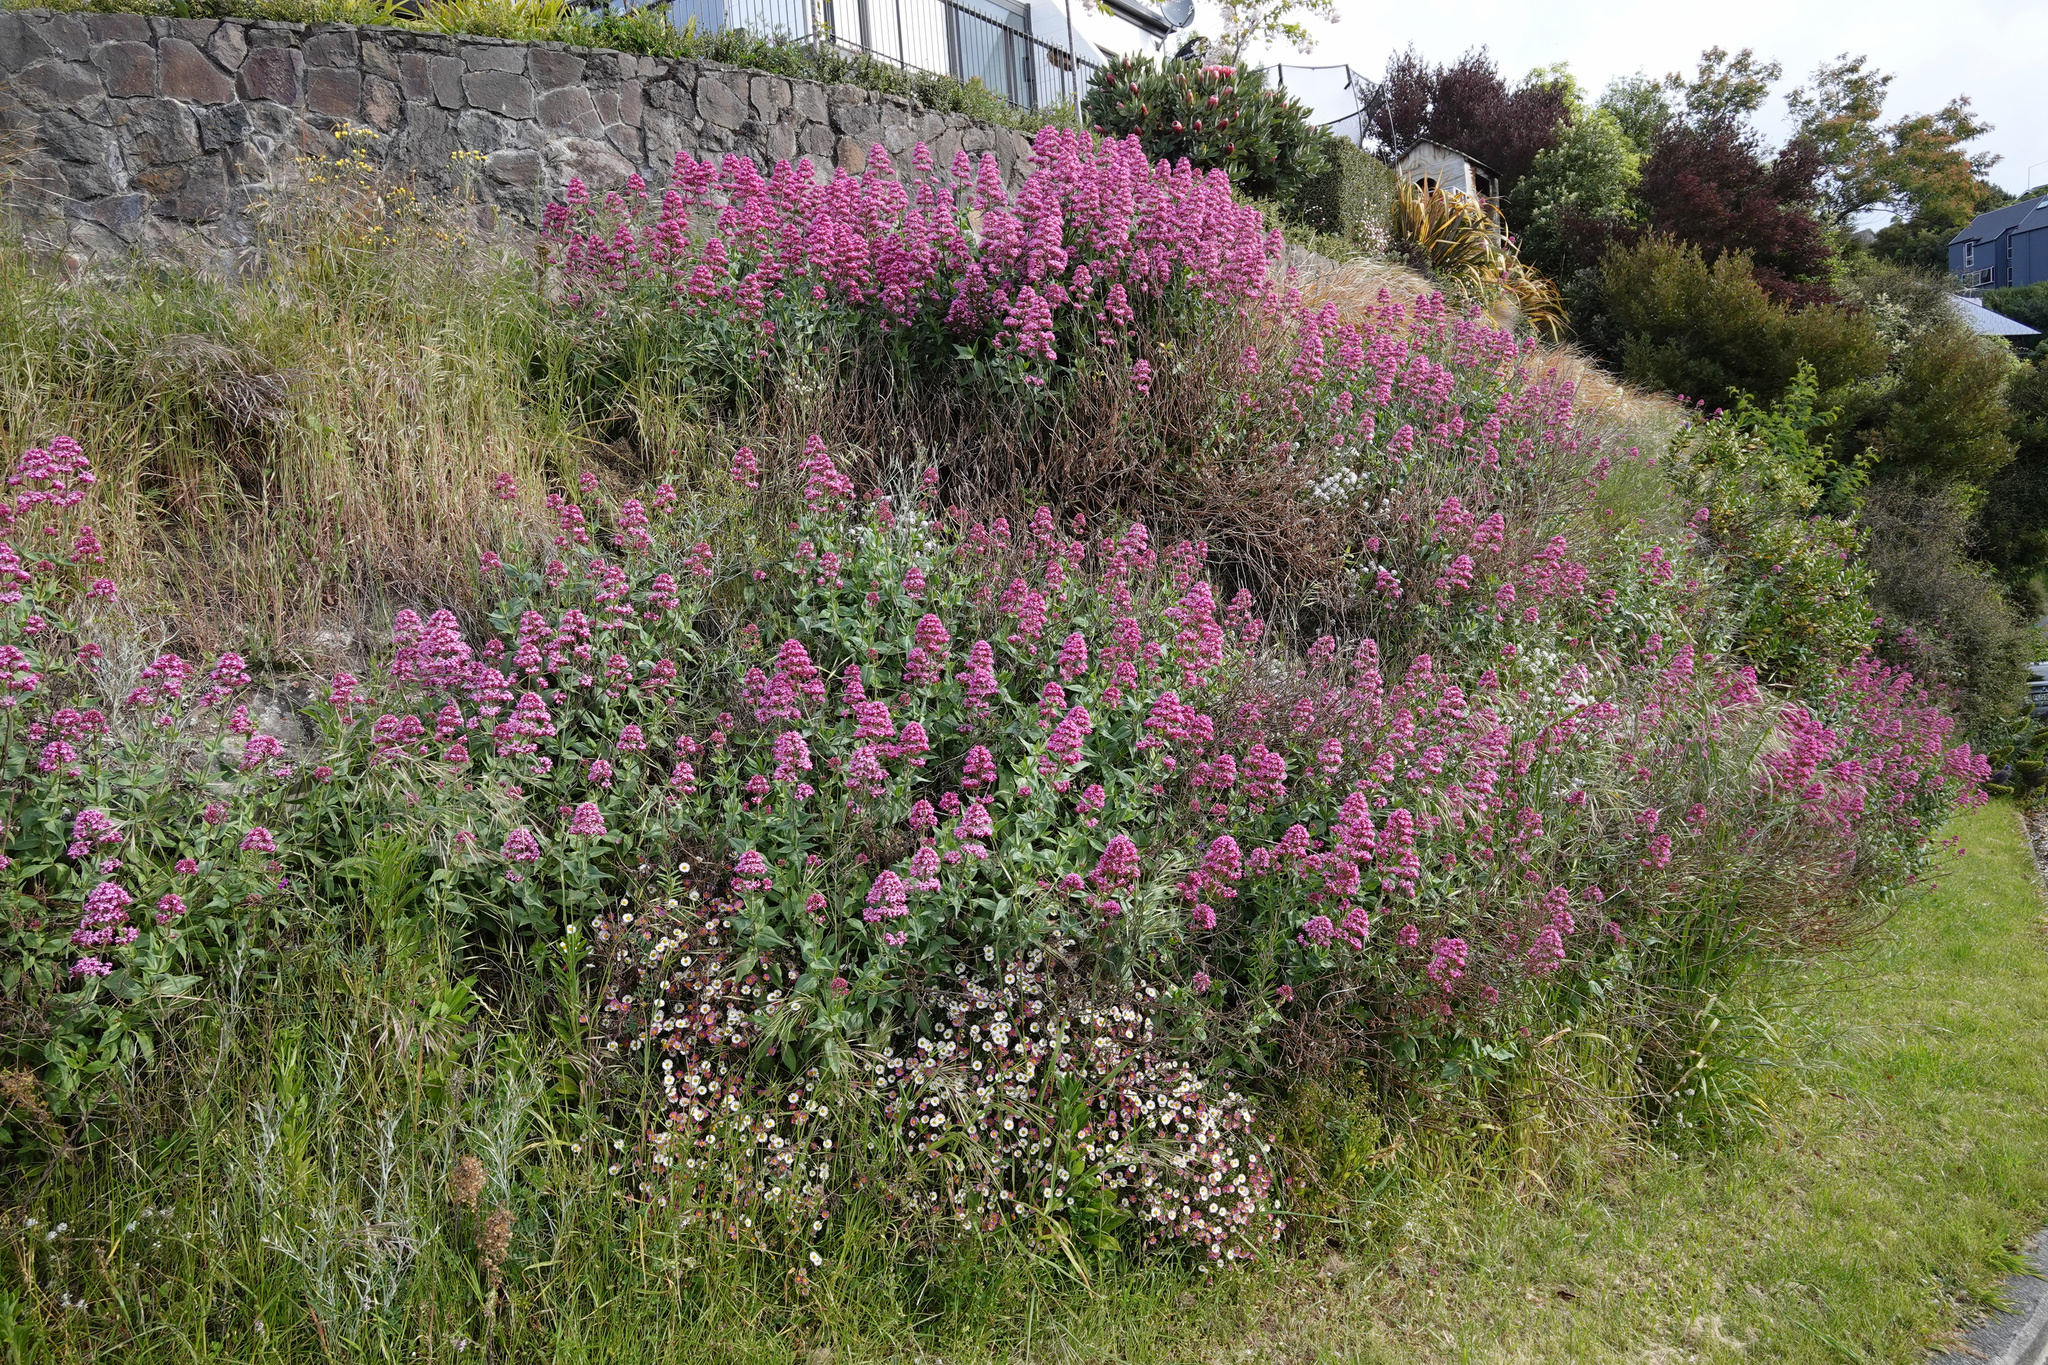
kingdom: Plantae
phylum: Tracheophyta
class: Magnoliopsida
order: Dipsacales
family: Caprifoliaceae
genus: Centranthus
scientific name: Centranthus ruber
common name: Red valerian
